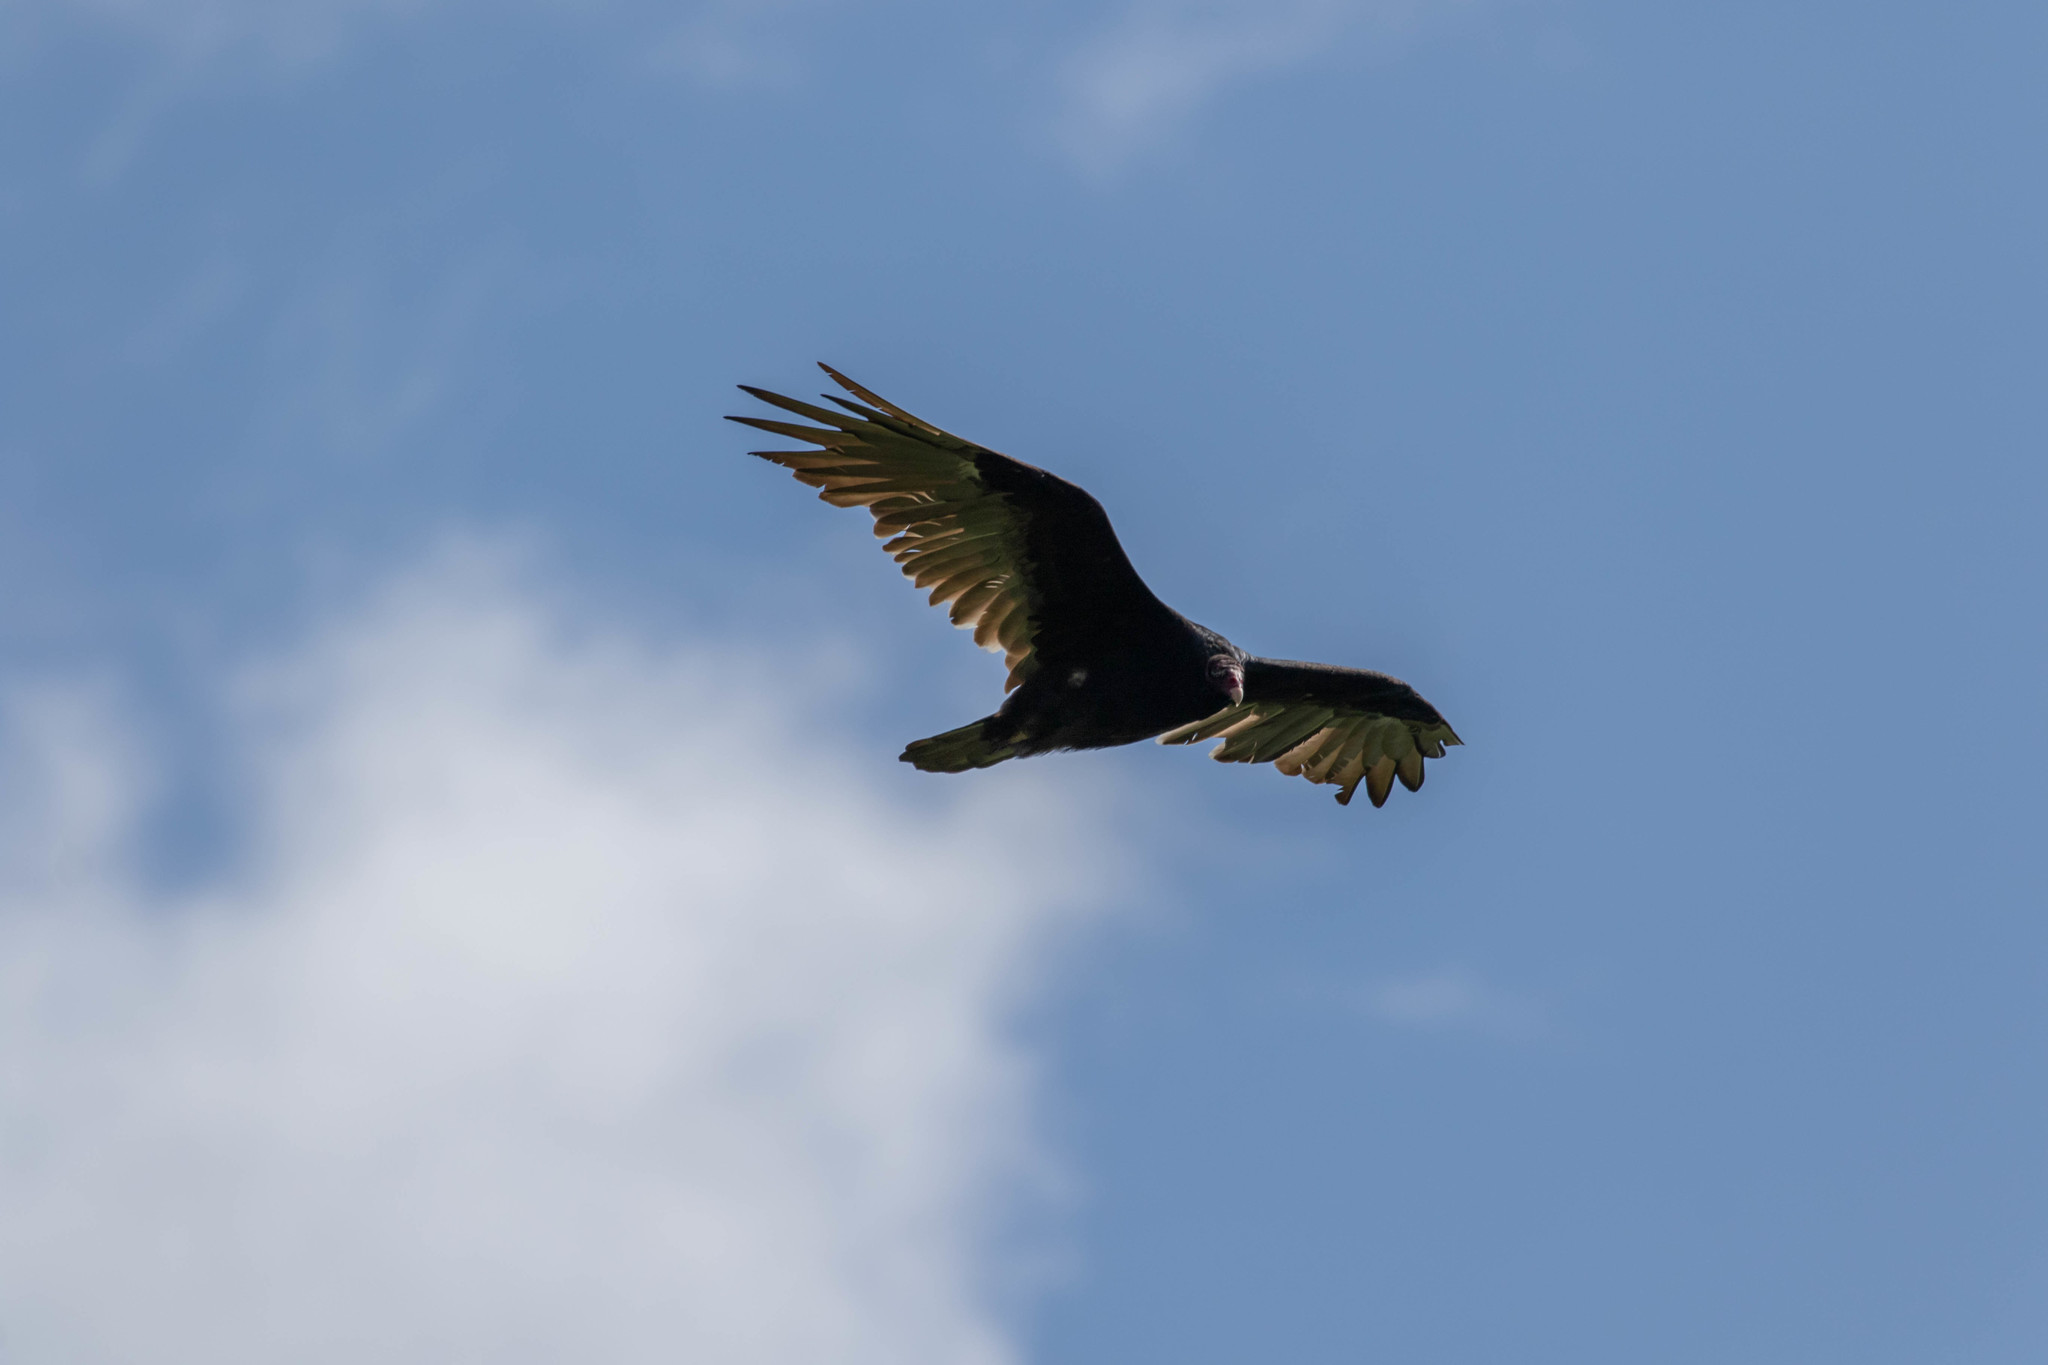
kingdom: Animalia
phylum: Chordata
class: Aves
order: Accipitriformes
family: Cathartidae
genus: Cathartes
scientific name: Cathartes aura
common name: Turkey vulture
